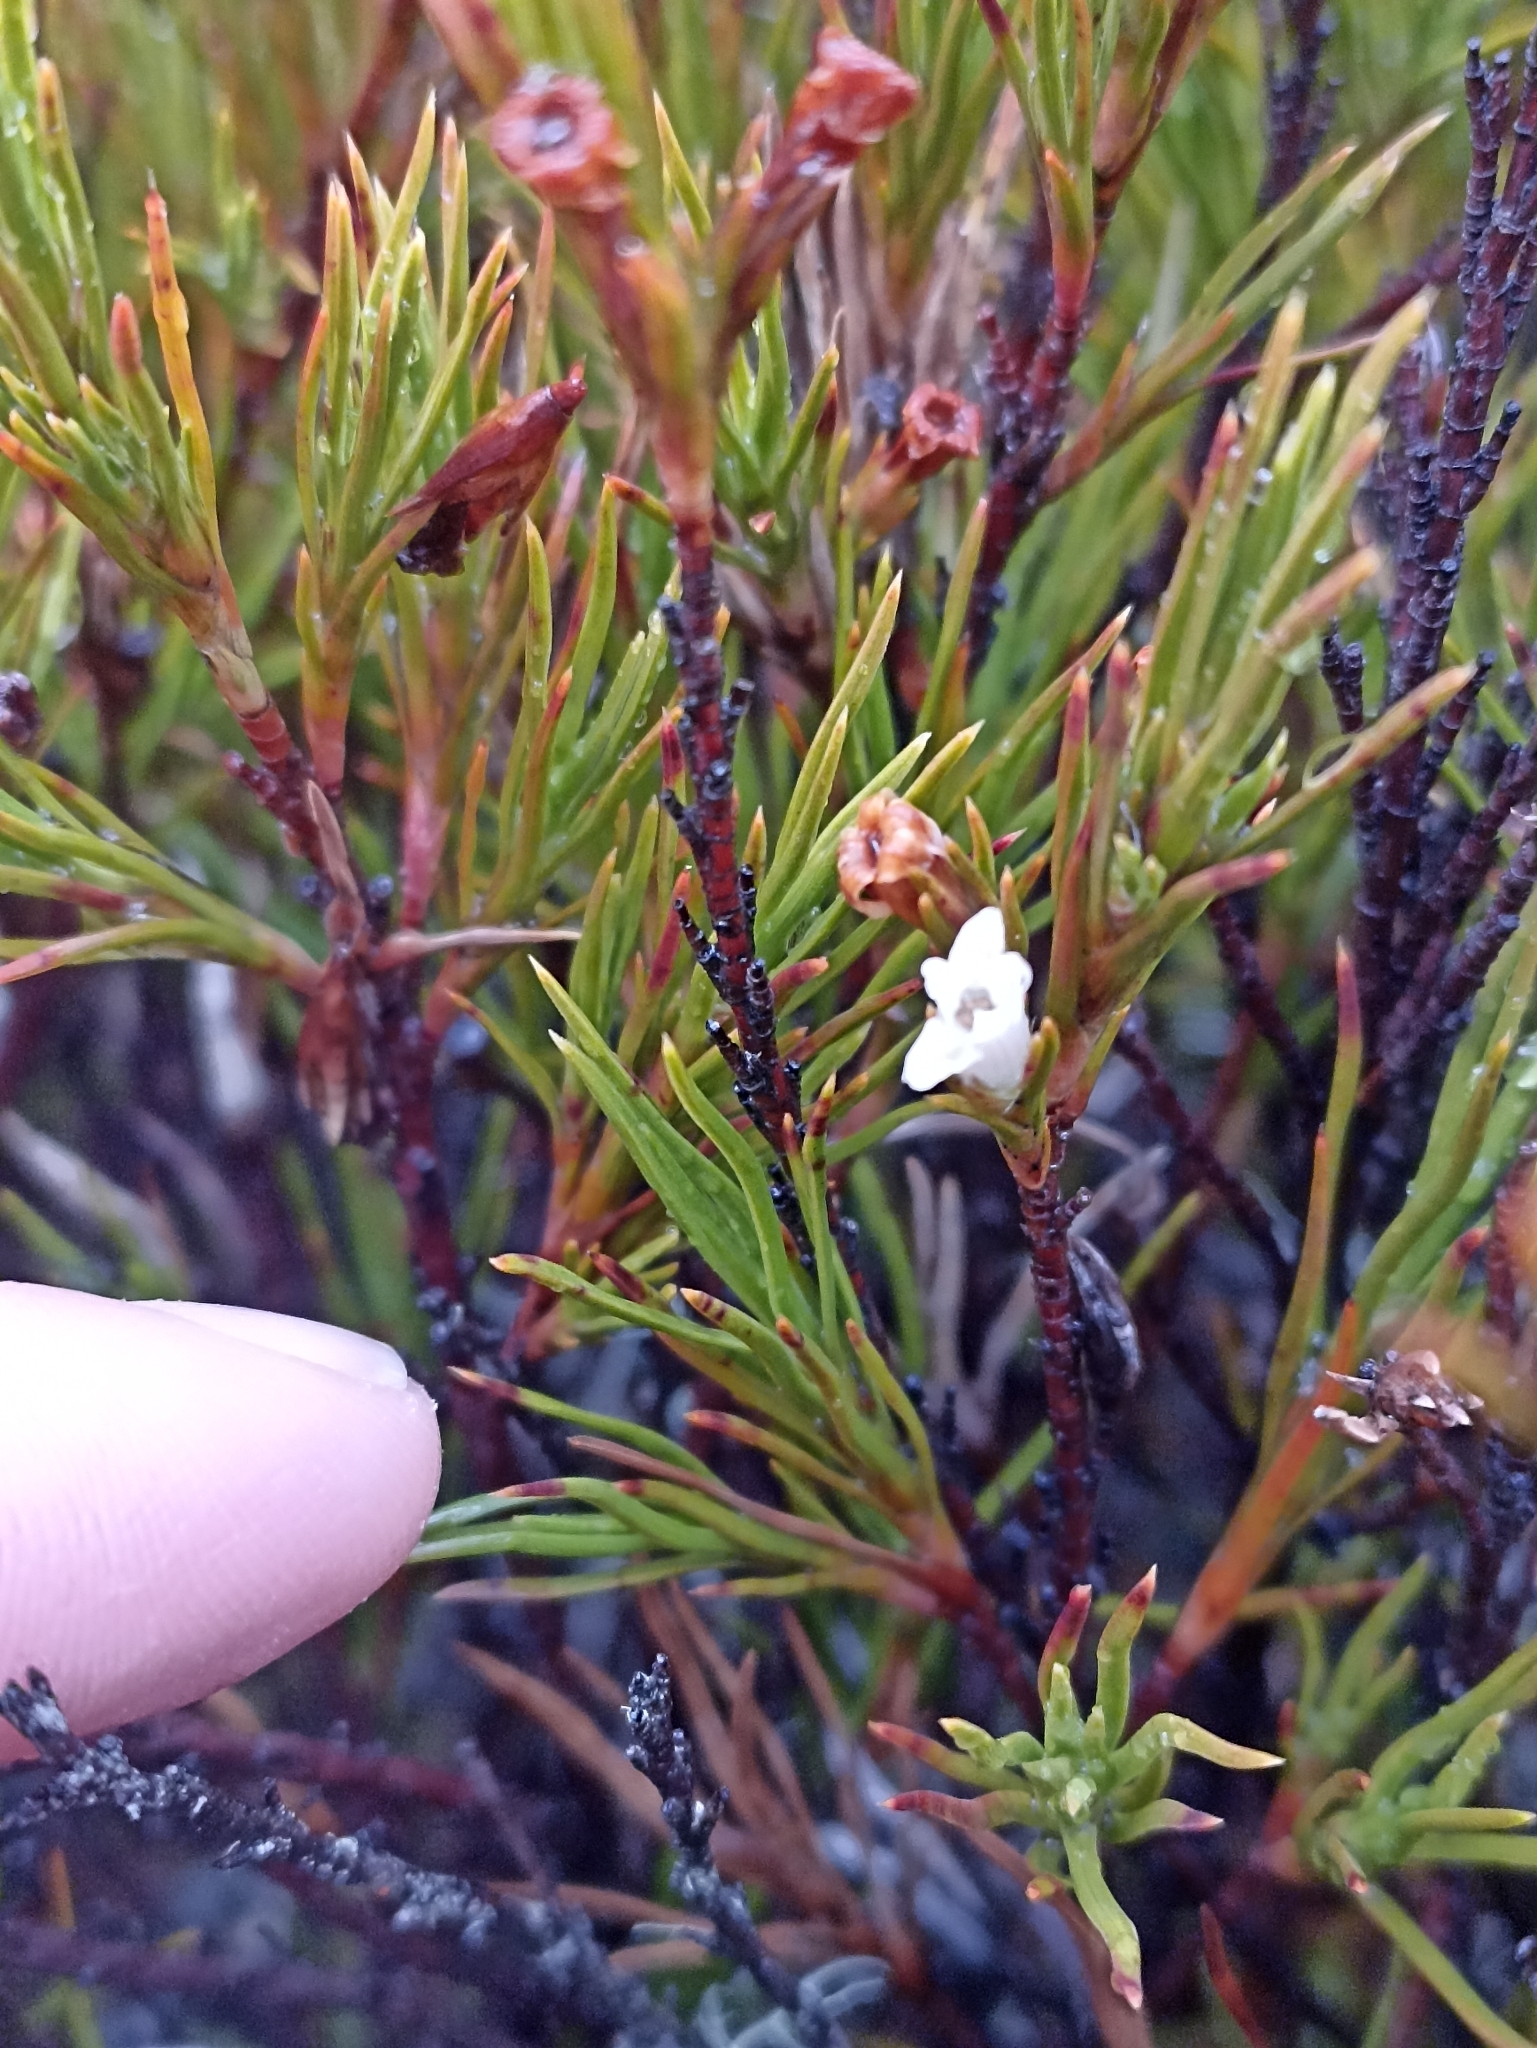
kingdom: Plantae
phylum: Tracheophyta
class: Magnoliopsida
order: Ericales
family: Ericaceae
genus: Dracophyllum
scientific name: Dracophyllum rosmarinifolium
